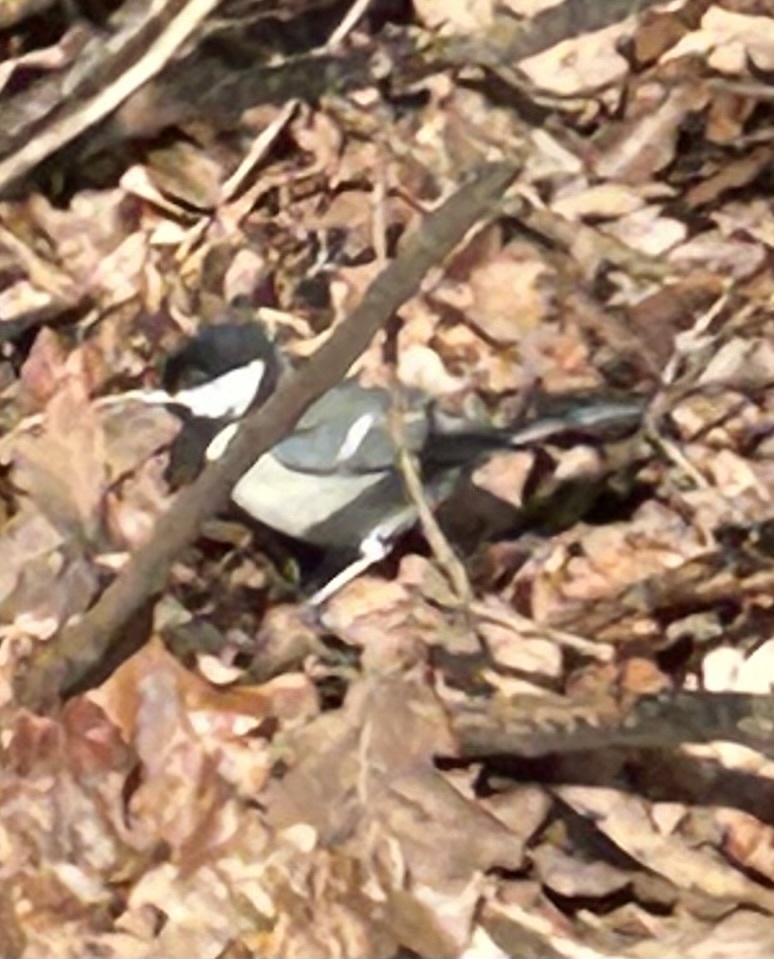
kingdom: Animalia
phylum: Chordata
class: Aves
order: Passeriformes
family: Paridae
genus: Parus
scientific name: Parus major
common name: Great tit
